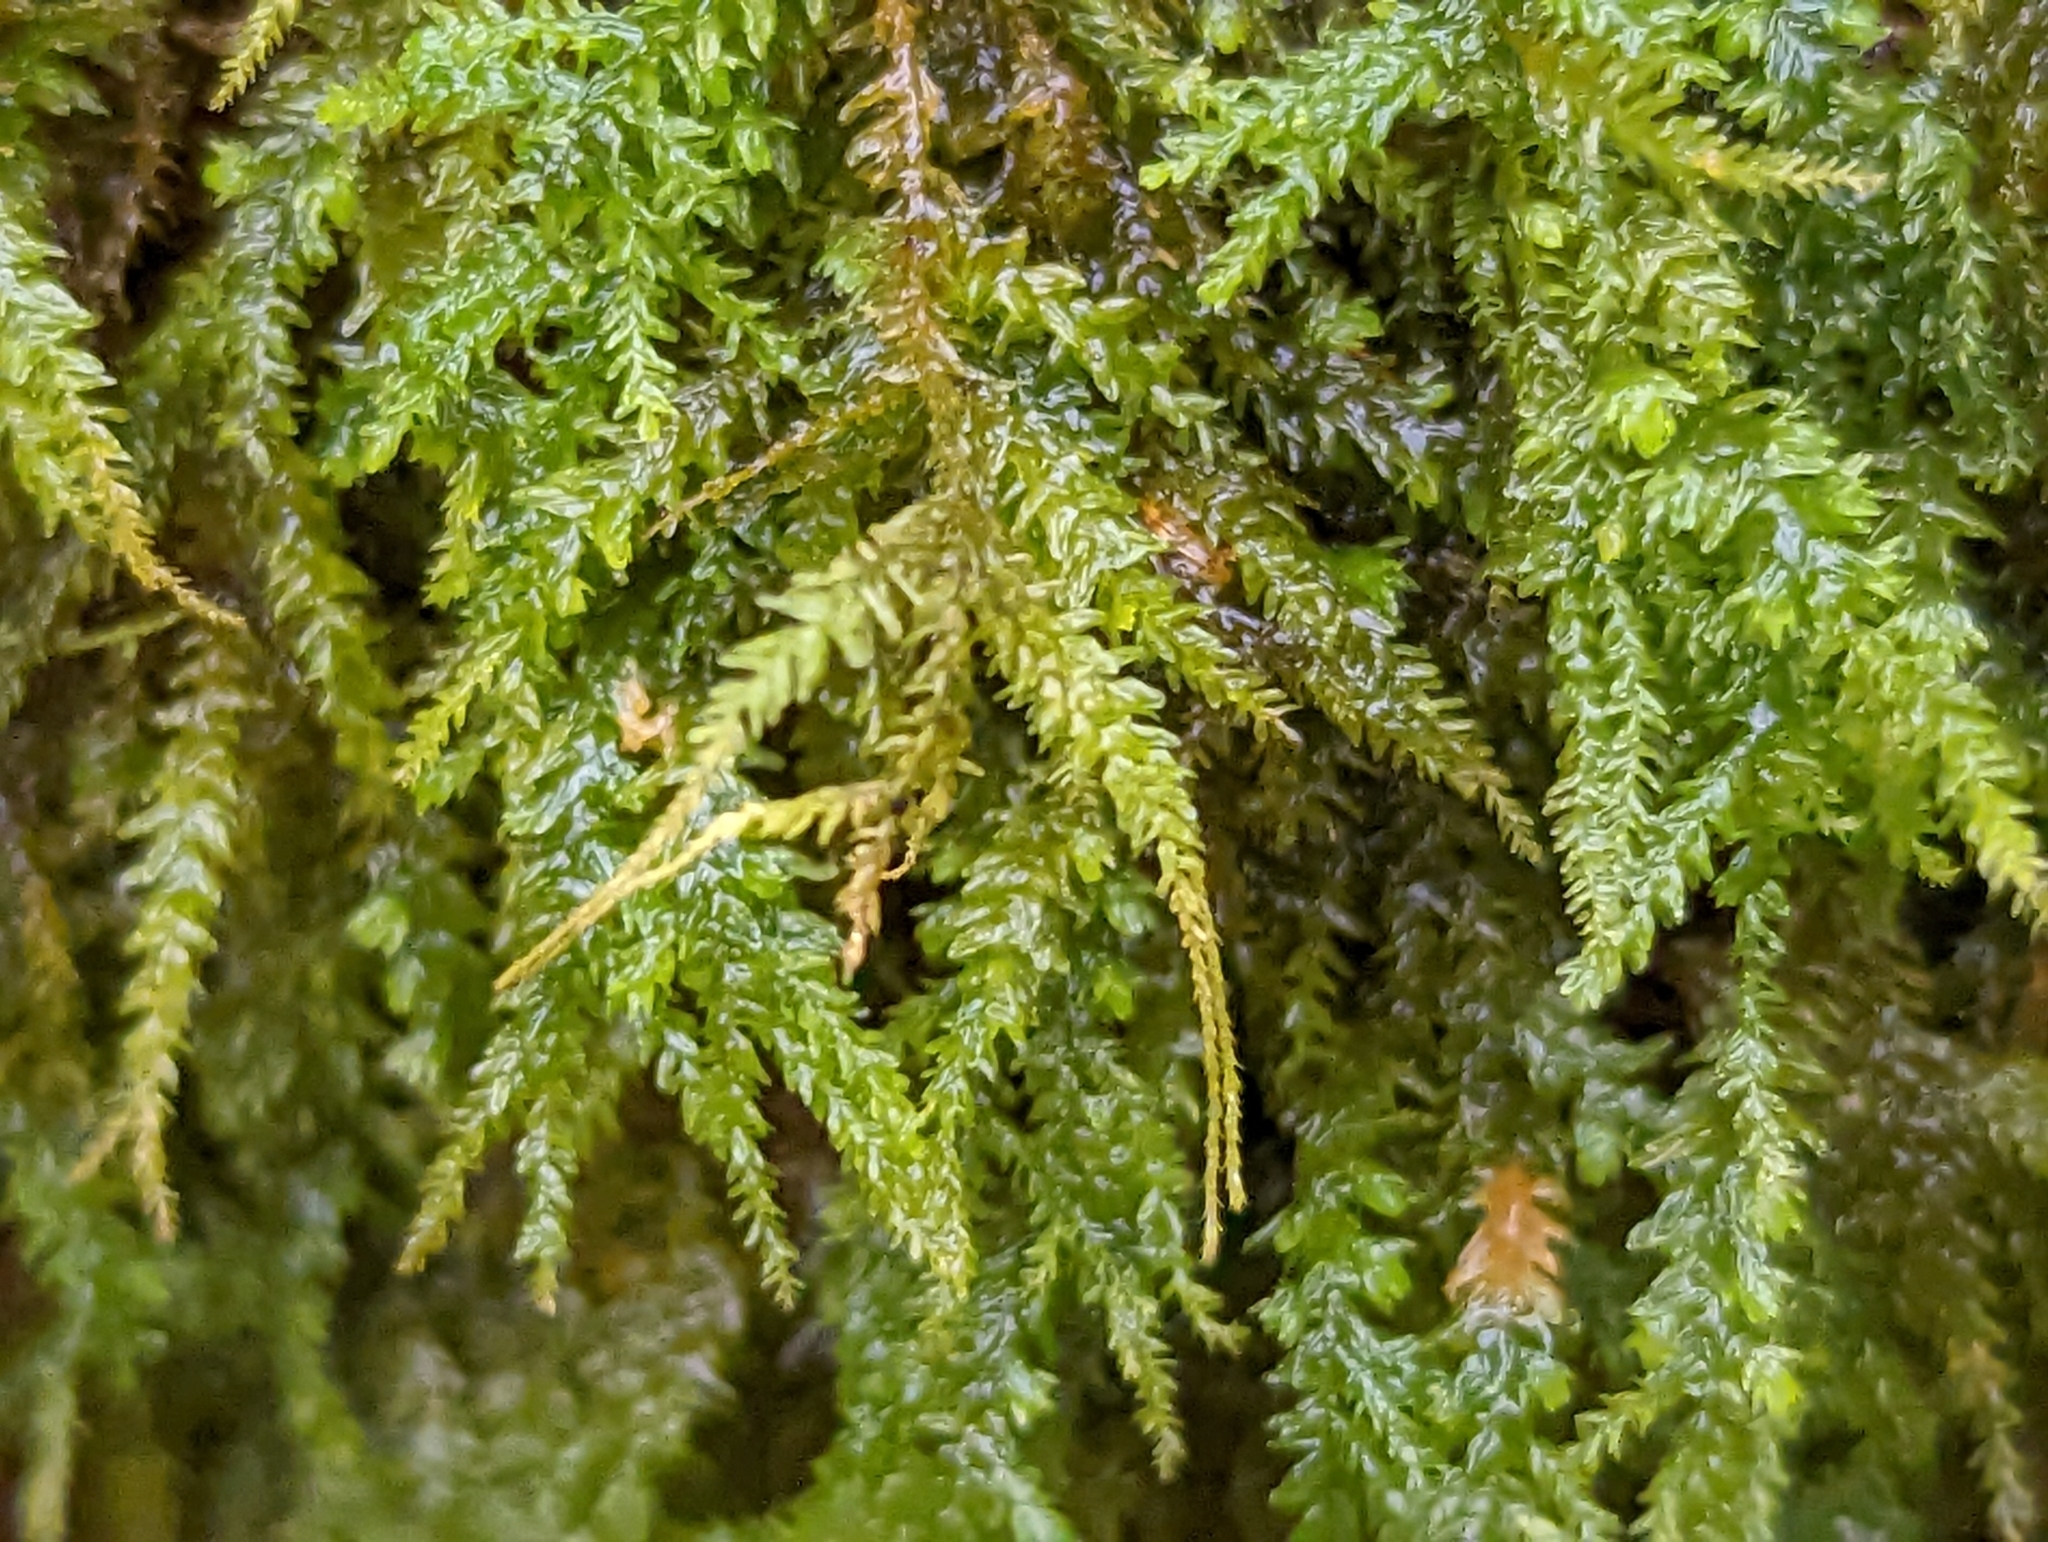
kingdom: Plantae
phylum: Bryophyta
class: Bryopsida
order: Hypnales
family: Neckeraceae
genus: Pseudanomodon
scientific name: Pseudanomodon attenuatus
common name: Tree-skirt moss
